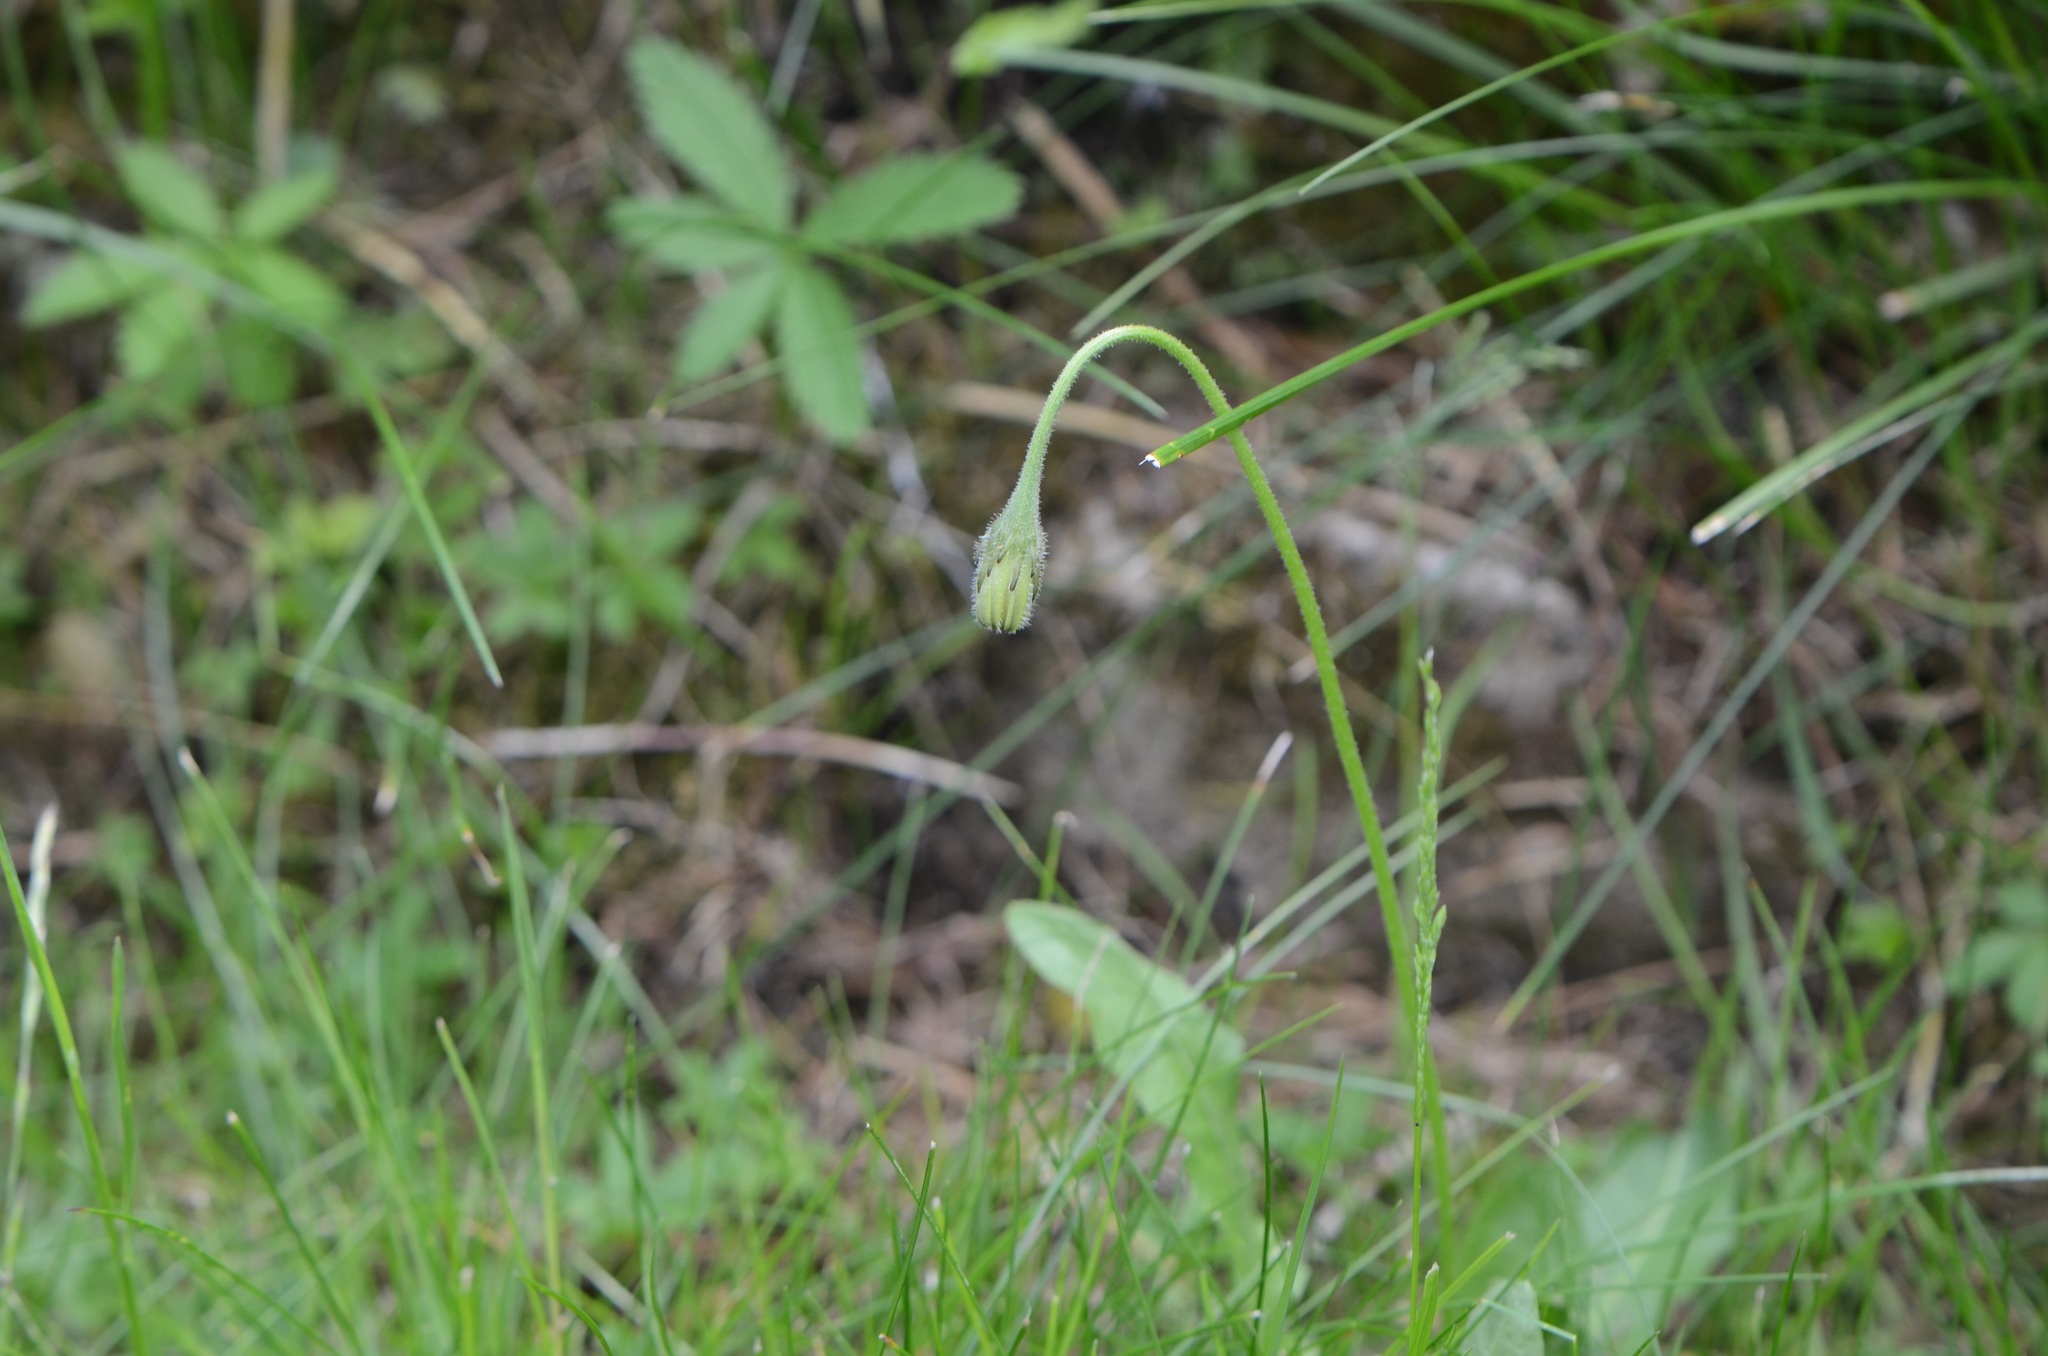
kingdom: Plantae
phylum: Tracheophyta
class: Magnoliopsida
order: Asterales
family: Asteraceae
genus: Leontodon
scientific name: Leontodon hispidus
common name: Rough hawkbit
